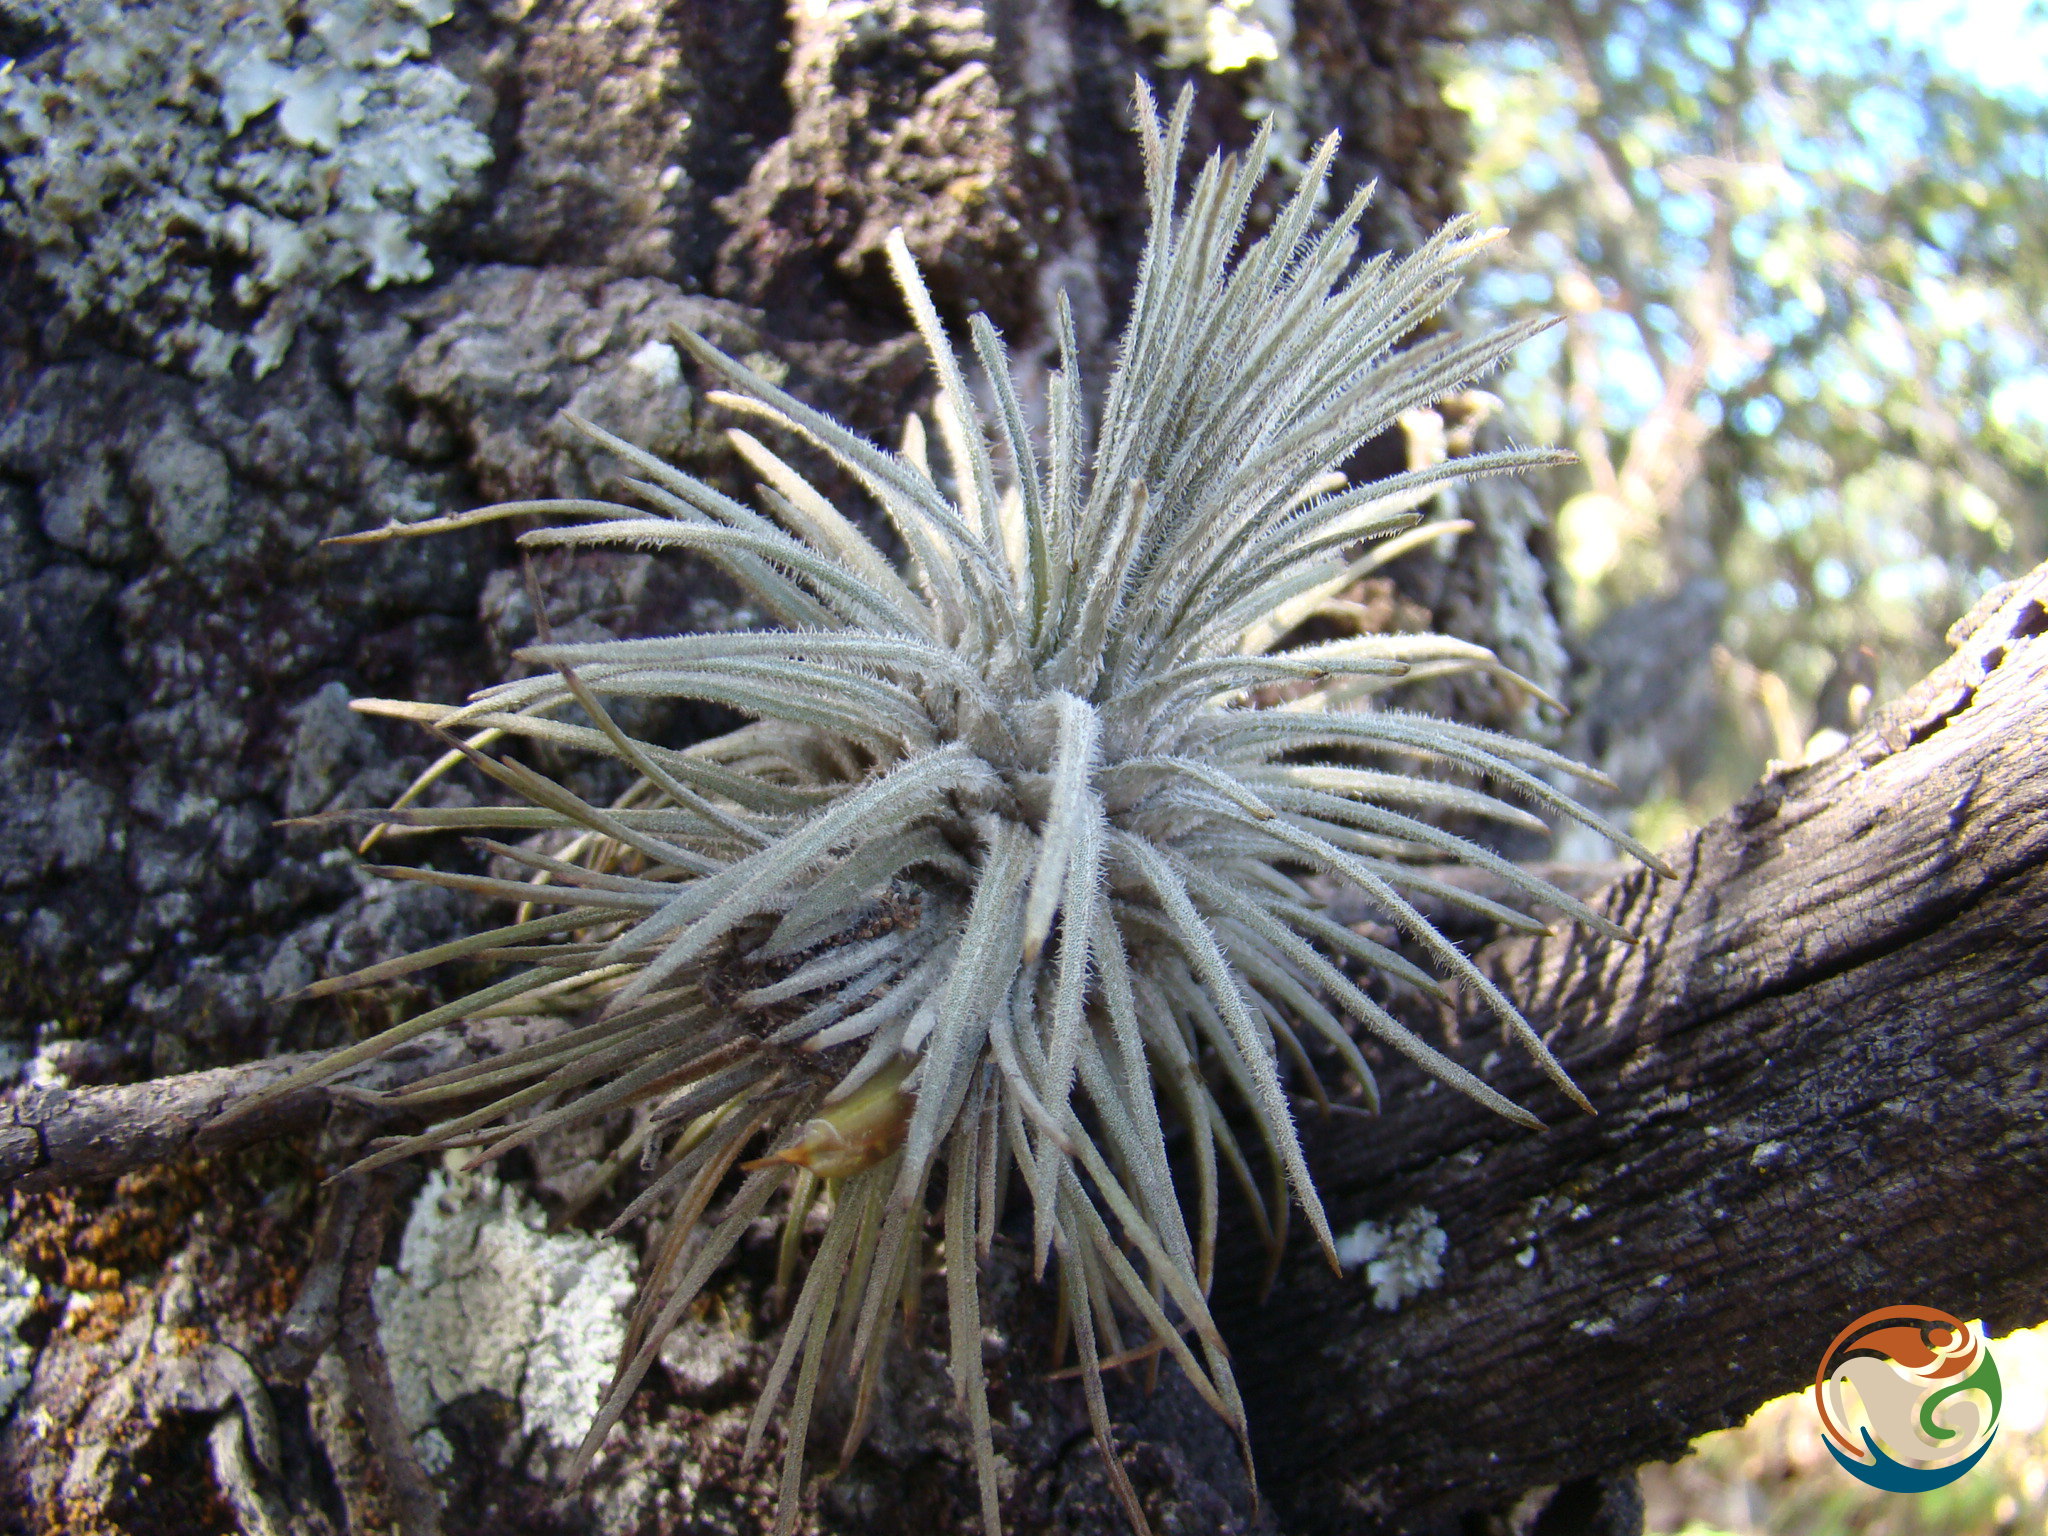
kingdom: Plantae
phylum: Tracheophyta
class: Liliopsida
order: Poales
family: Bromeliaceae
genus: Tillandsia
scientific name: Tillandsia atroviridipetala
